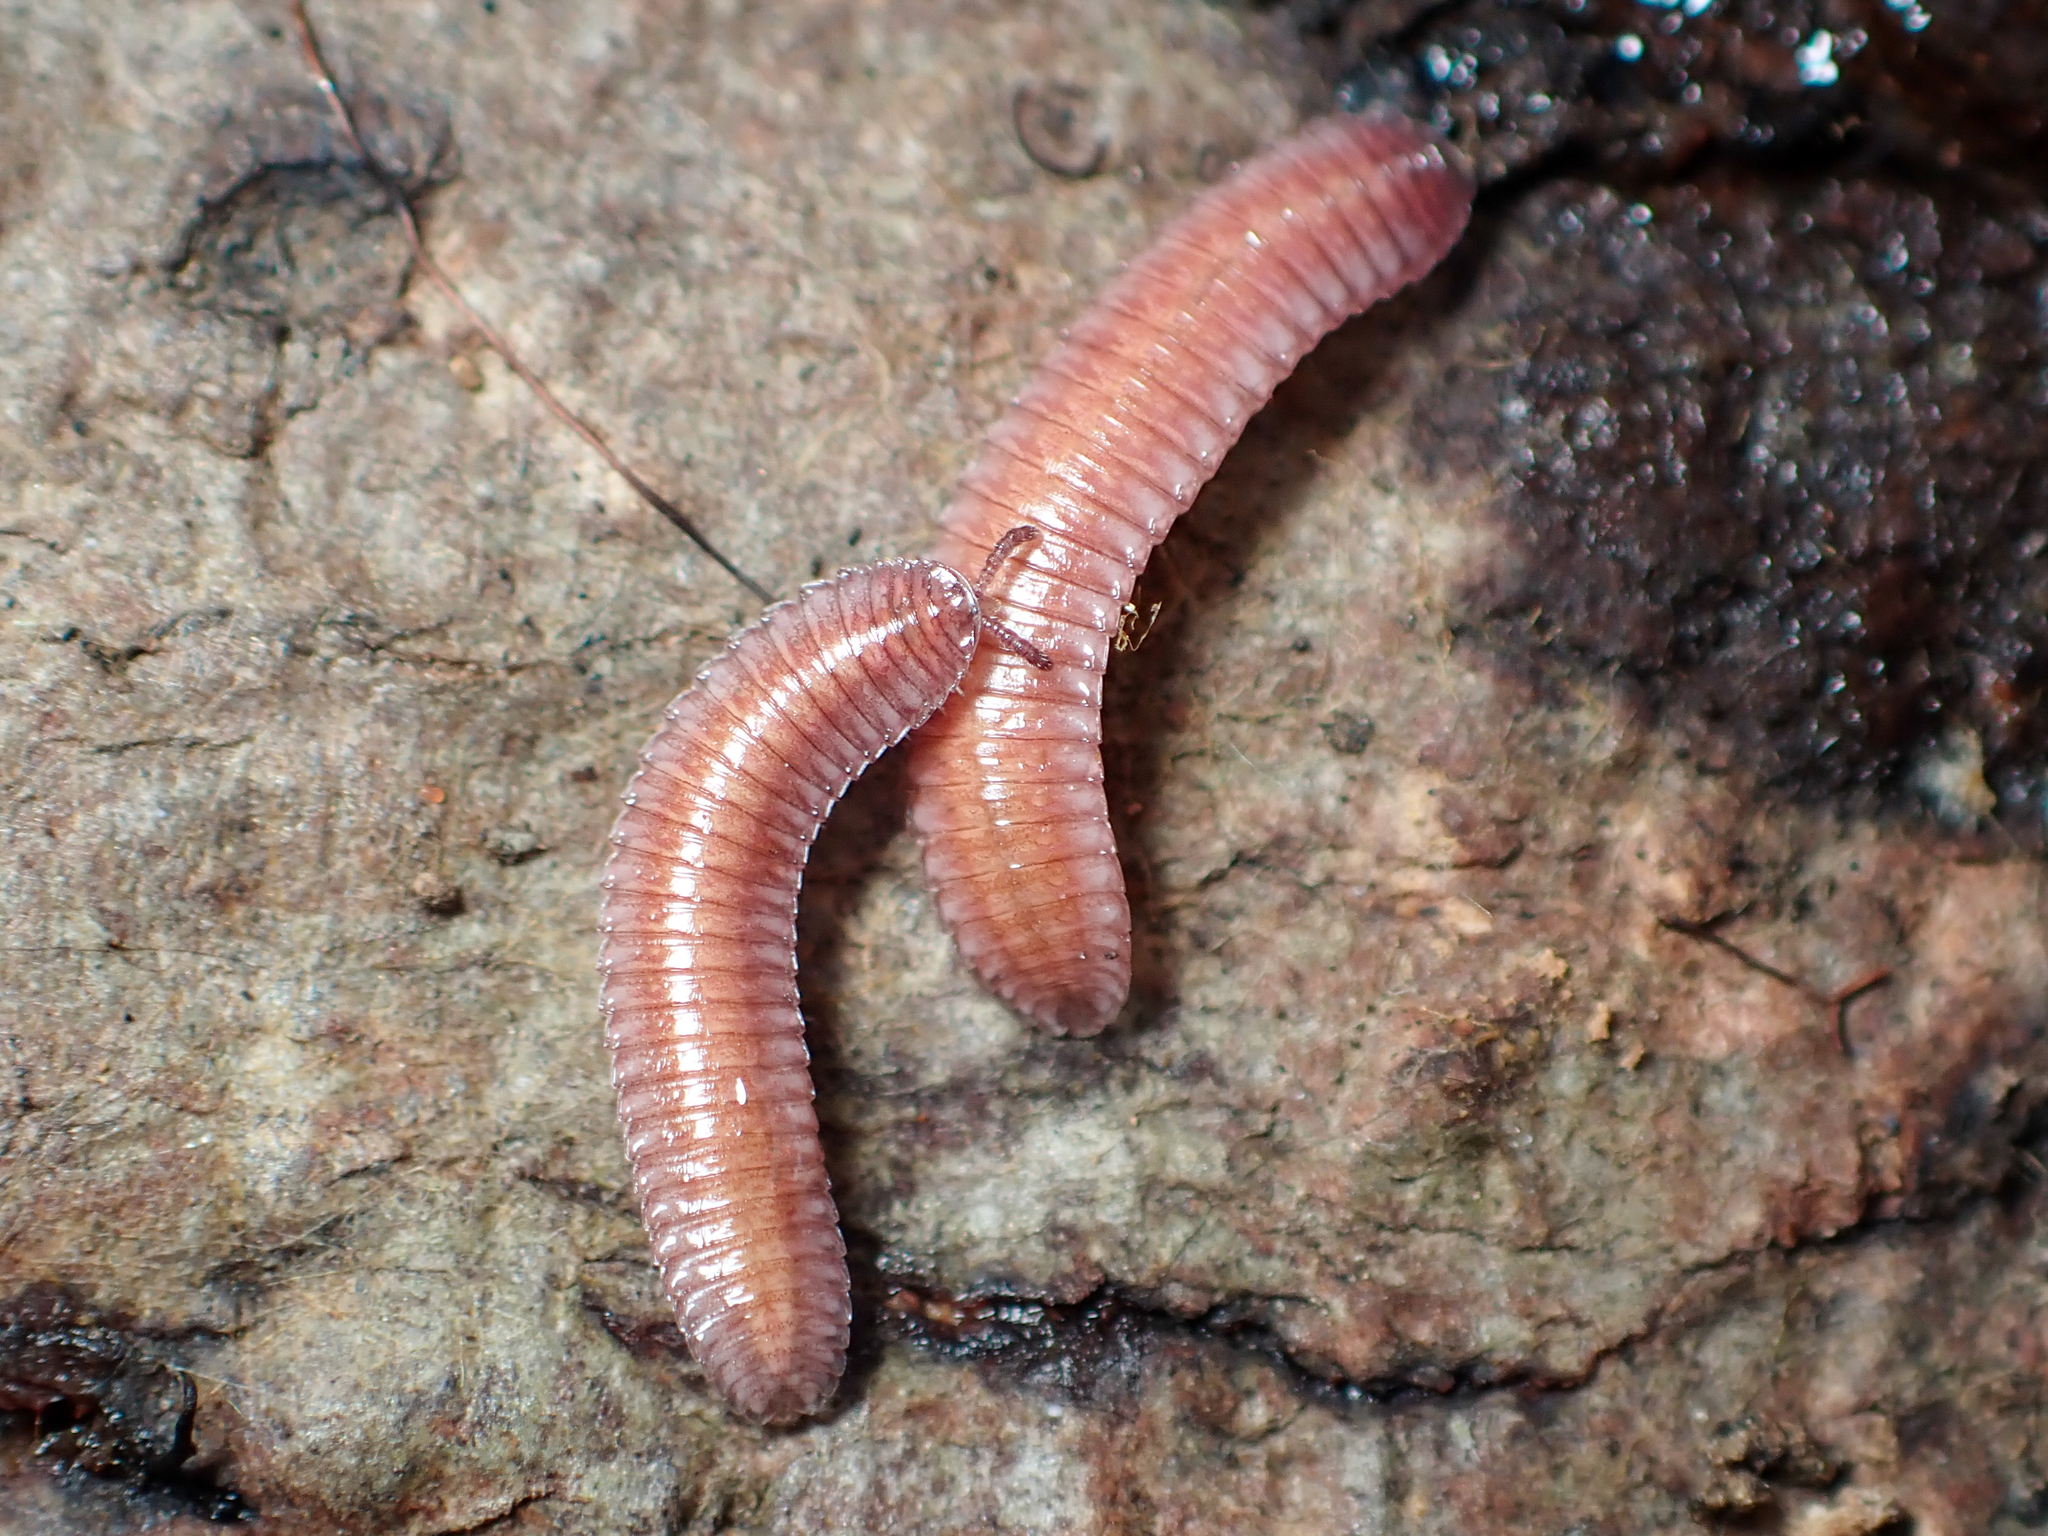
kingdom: Animalia
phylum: Arthropoda
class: Diplopoda
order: Polyzoniida
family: Hirudisomatidae
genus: Octoglena
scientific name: Octoglena gracilipes
